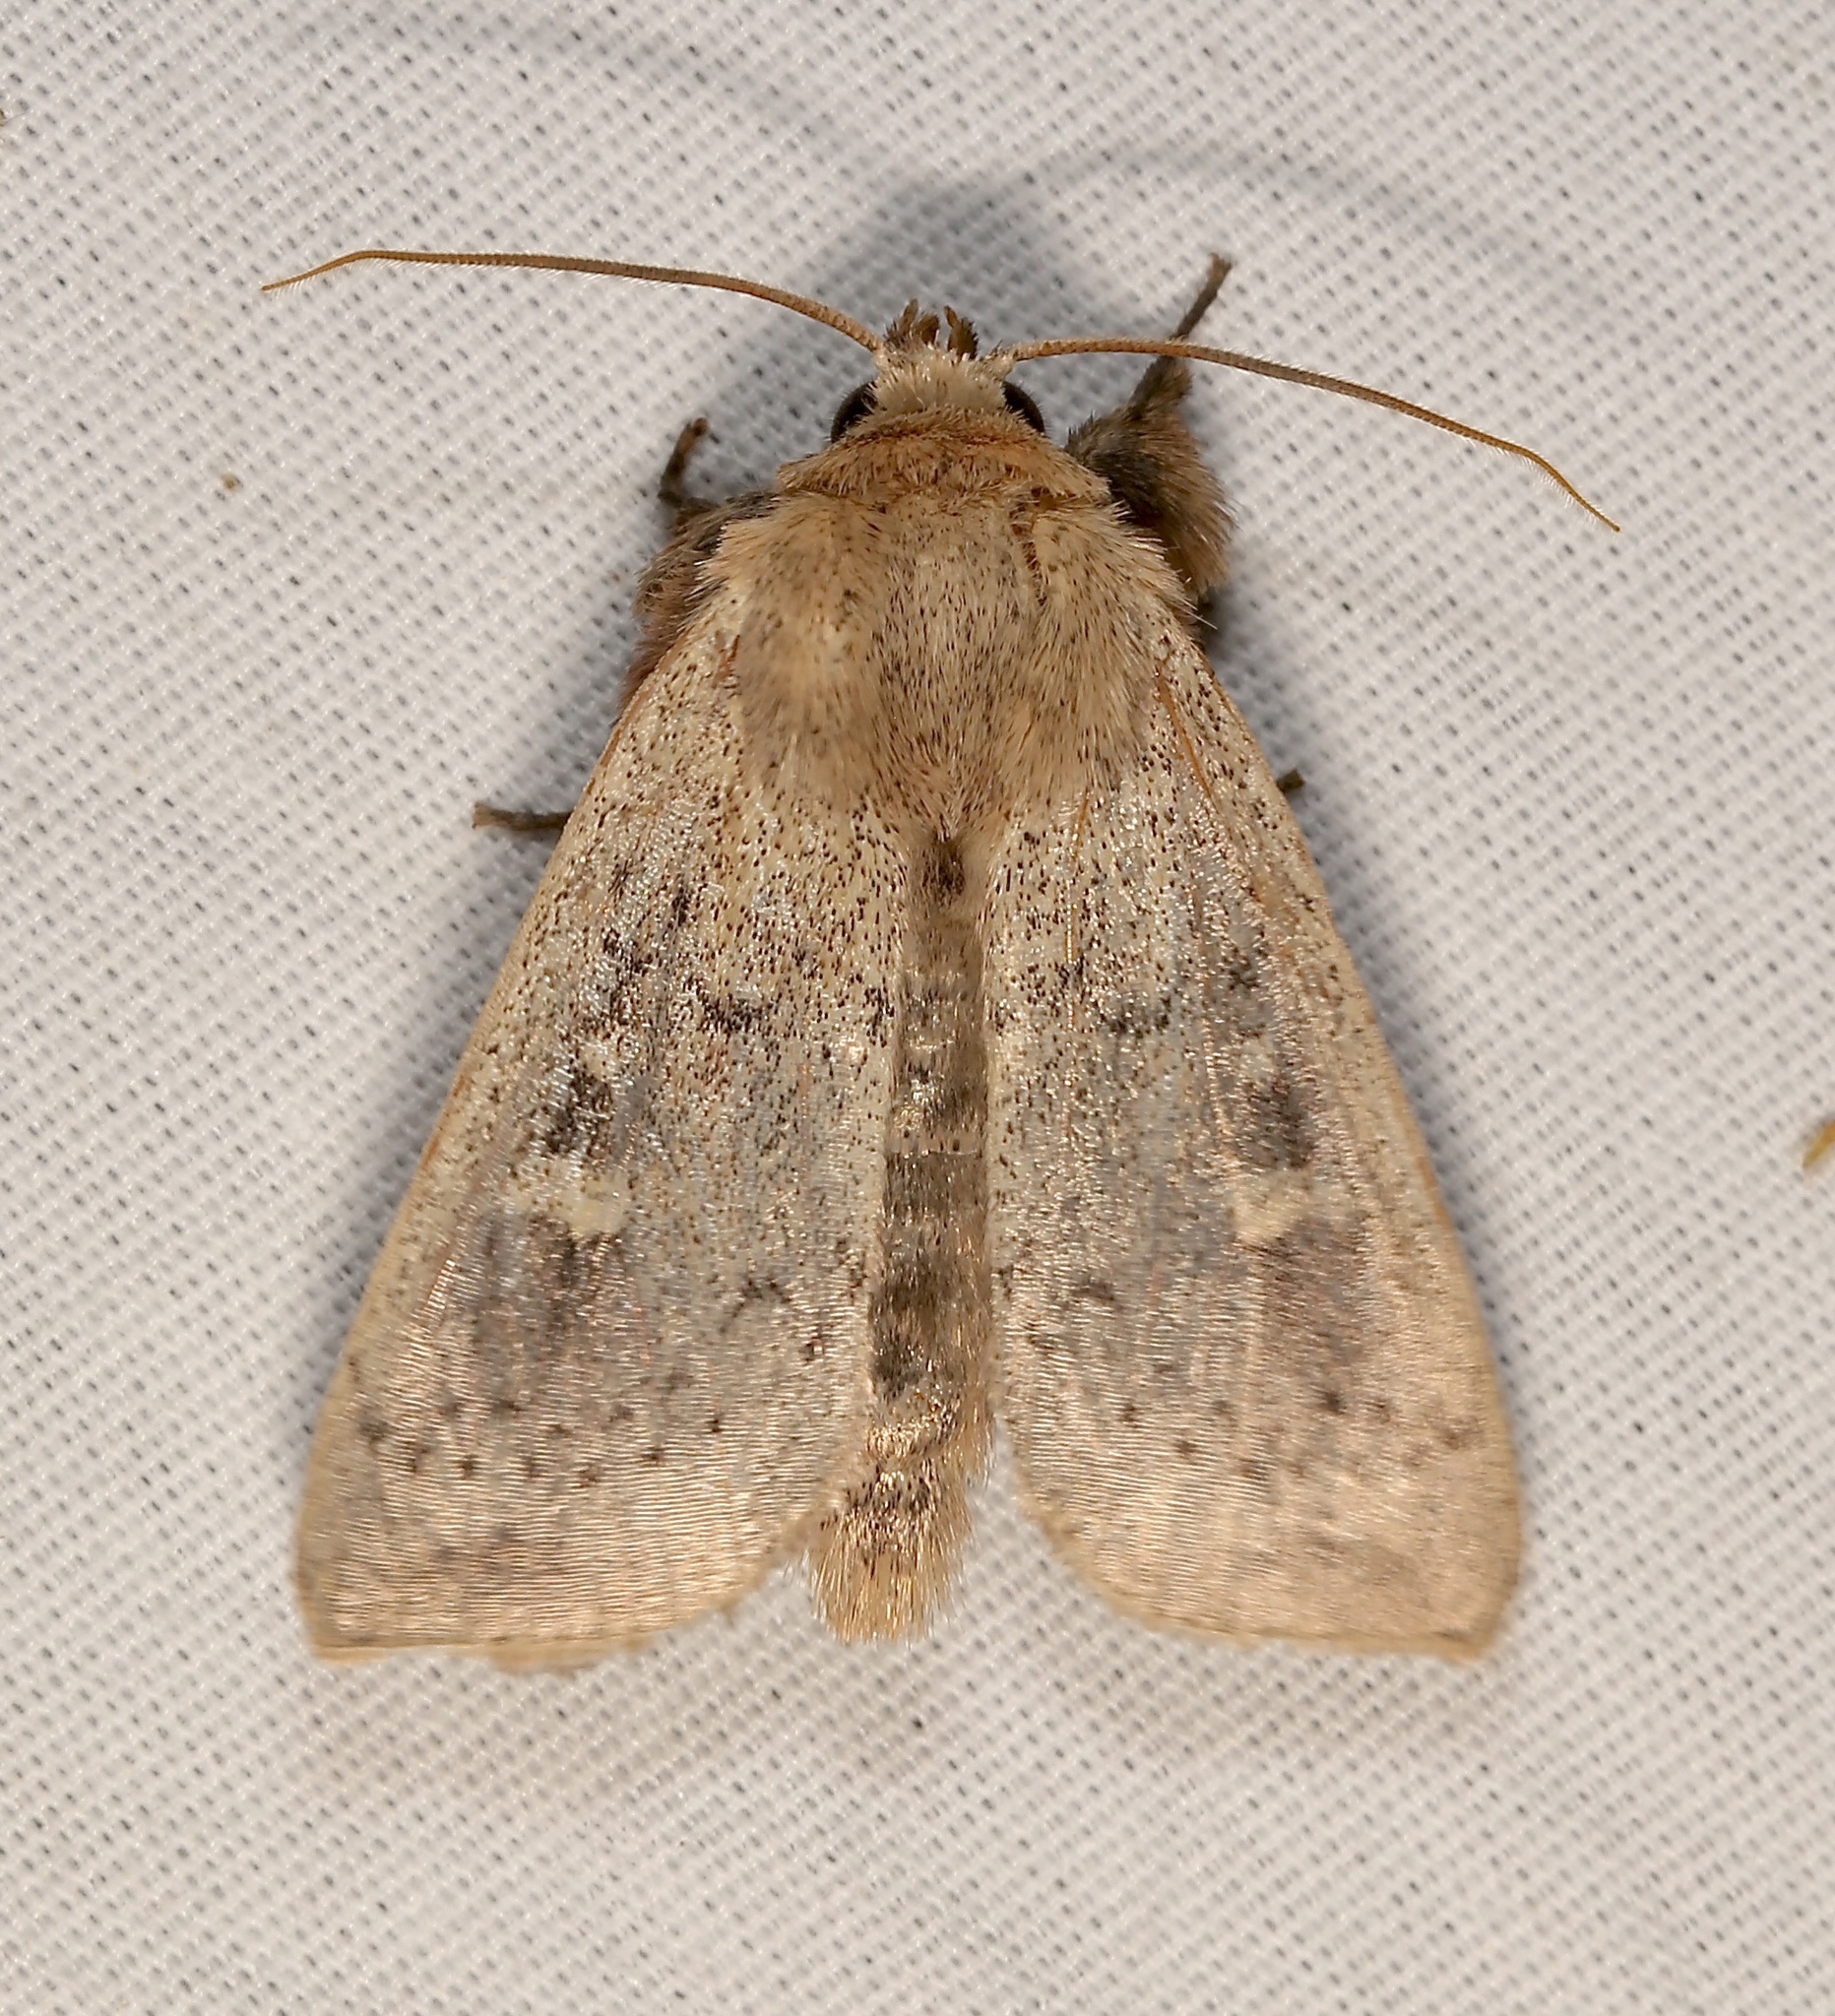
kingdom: Animalia
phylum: Arthropoda
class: Insecta
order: Lepidoptera
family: Noctuidae
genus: Leucania
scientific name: Leucania pseudargyria
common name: False wainscot
